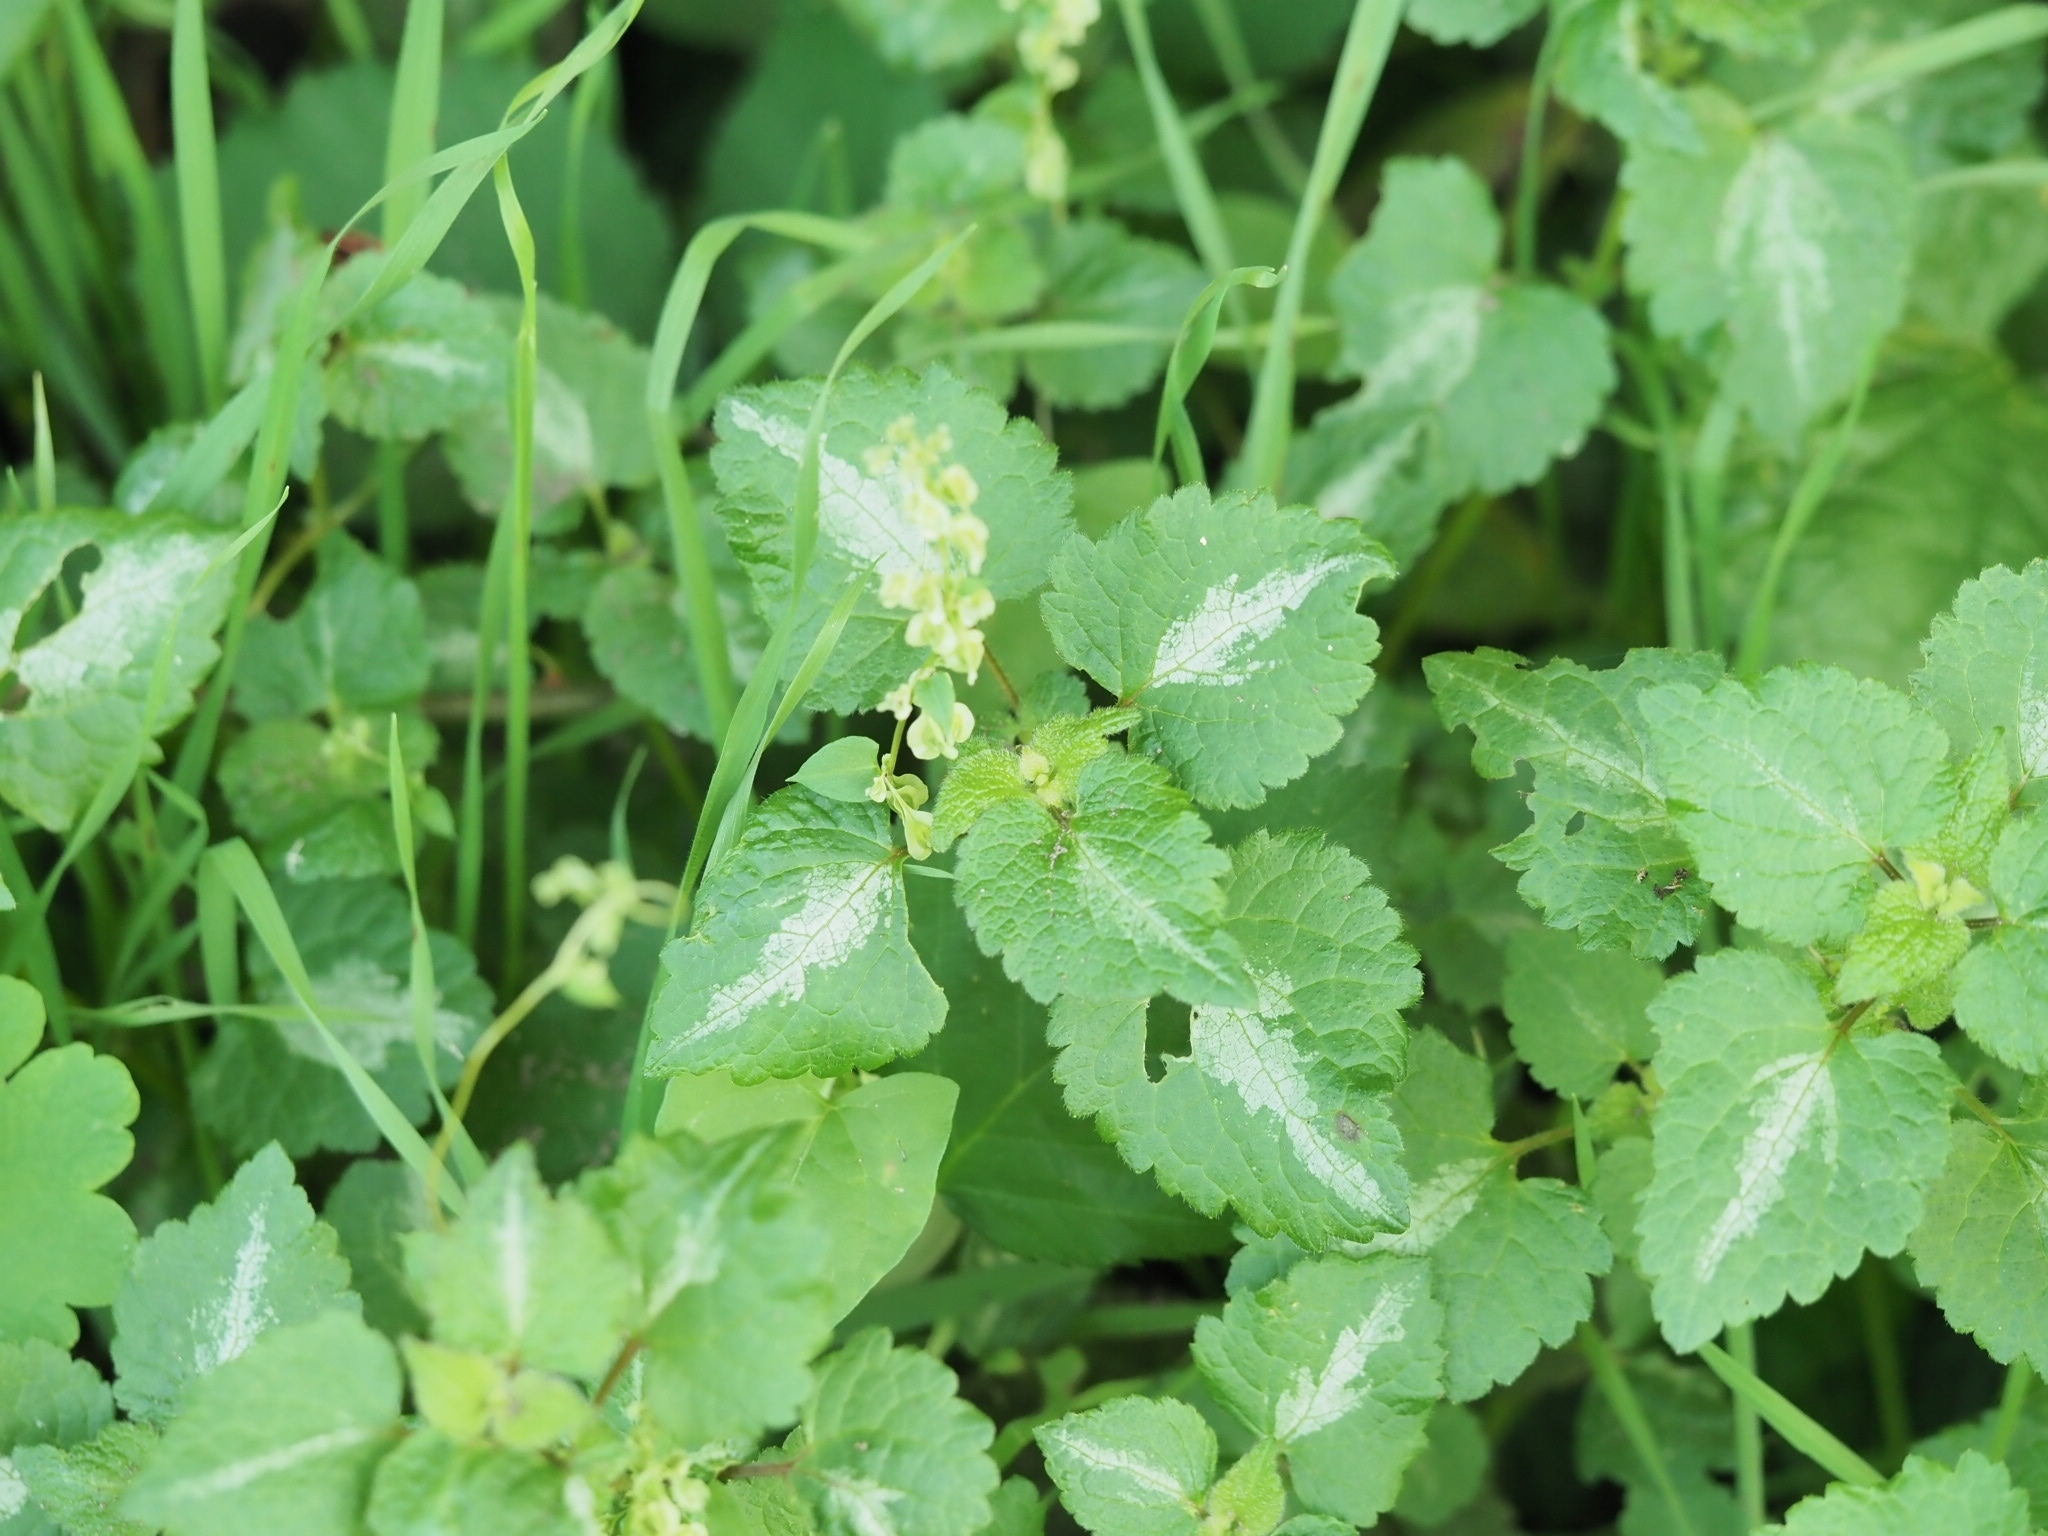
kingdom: Plantae
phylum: Tracheophyta
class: Magnoliopsida
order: Lamiales
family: Lamiaceae
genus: Lamium
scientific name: Lamium maculatum
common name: Spotted dead-nettle
